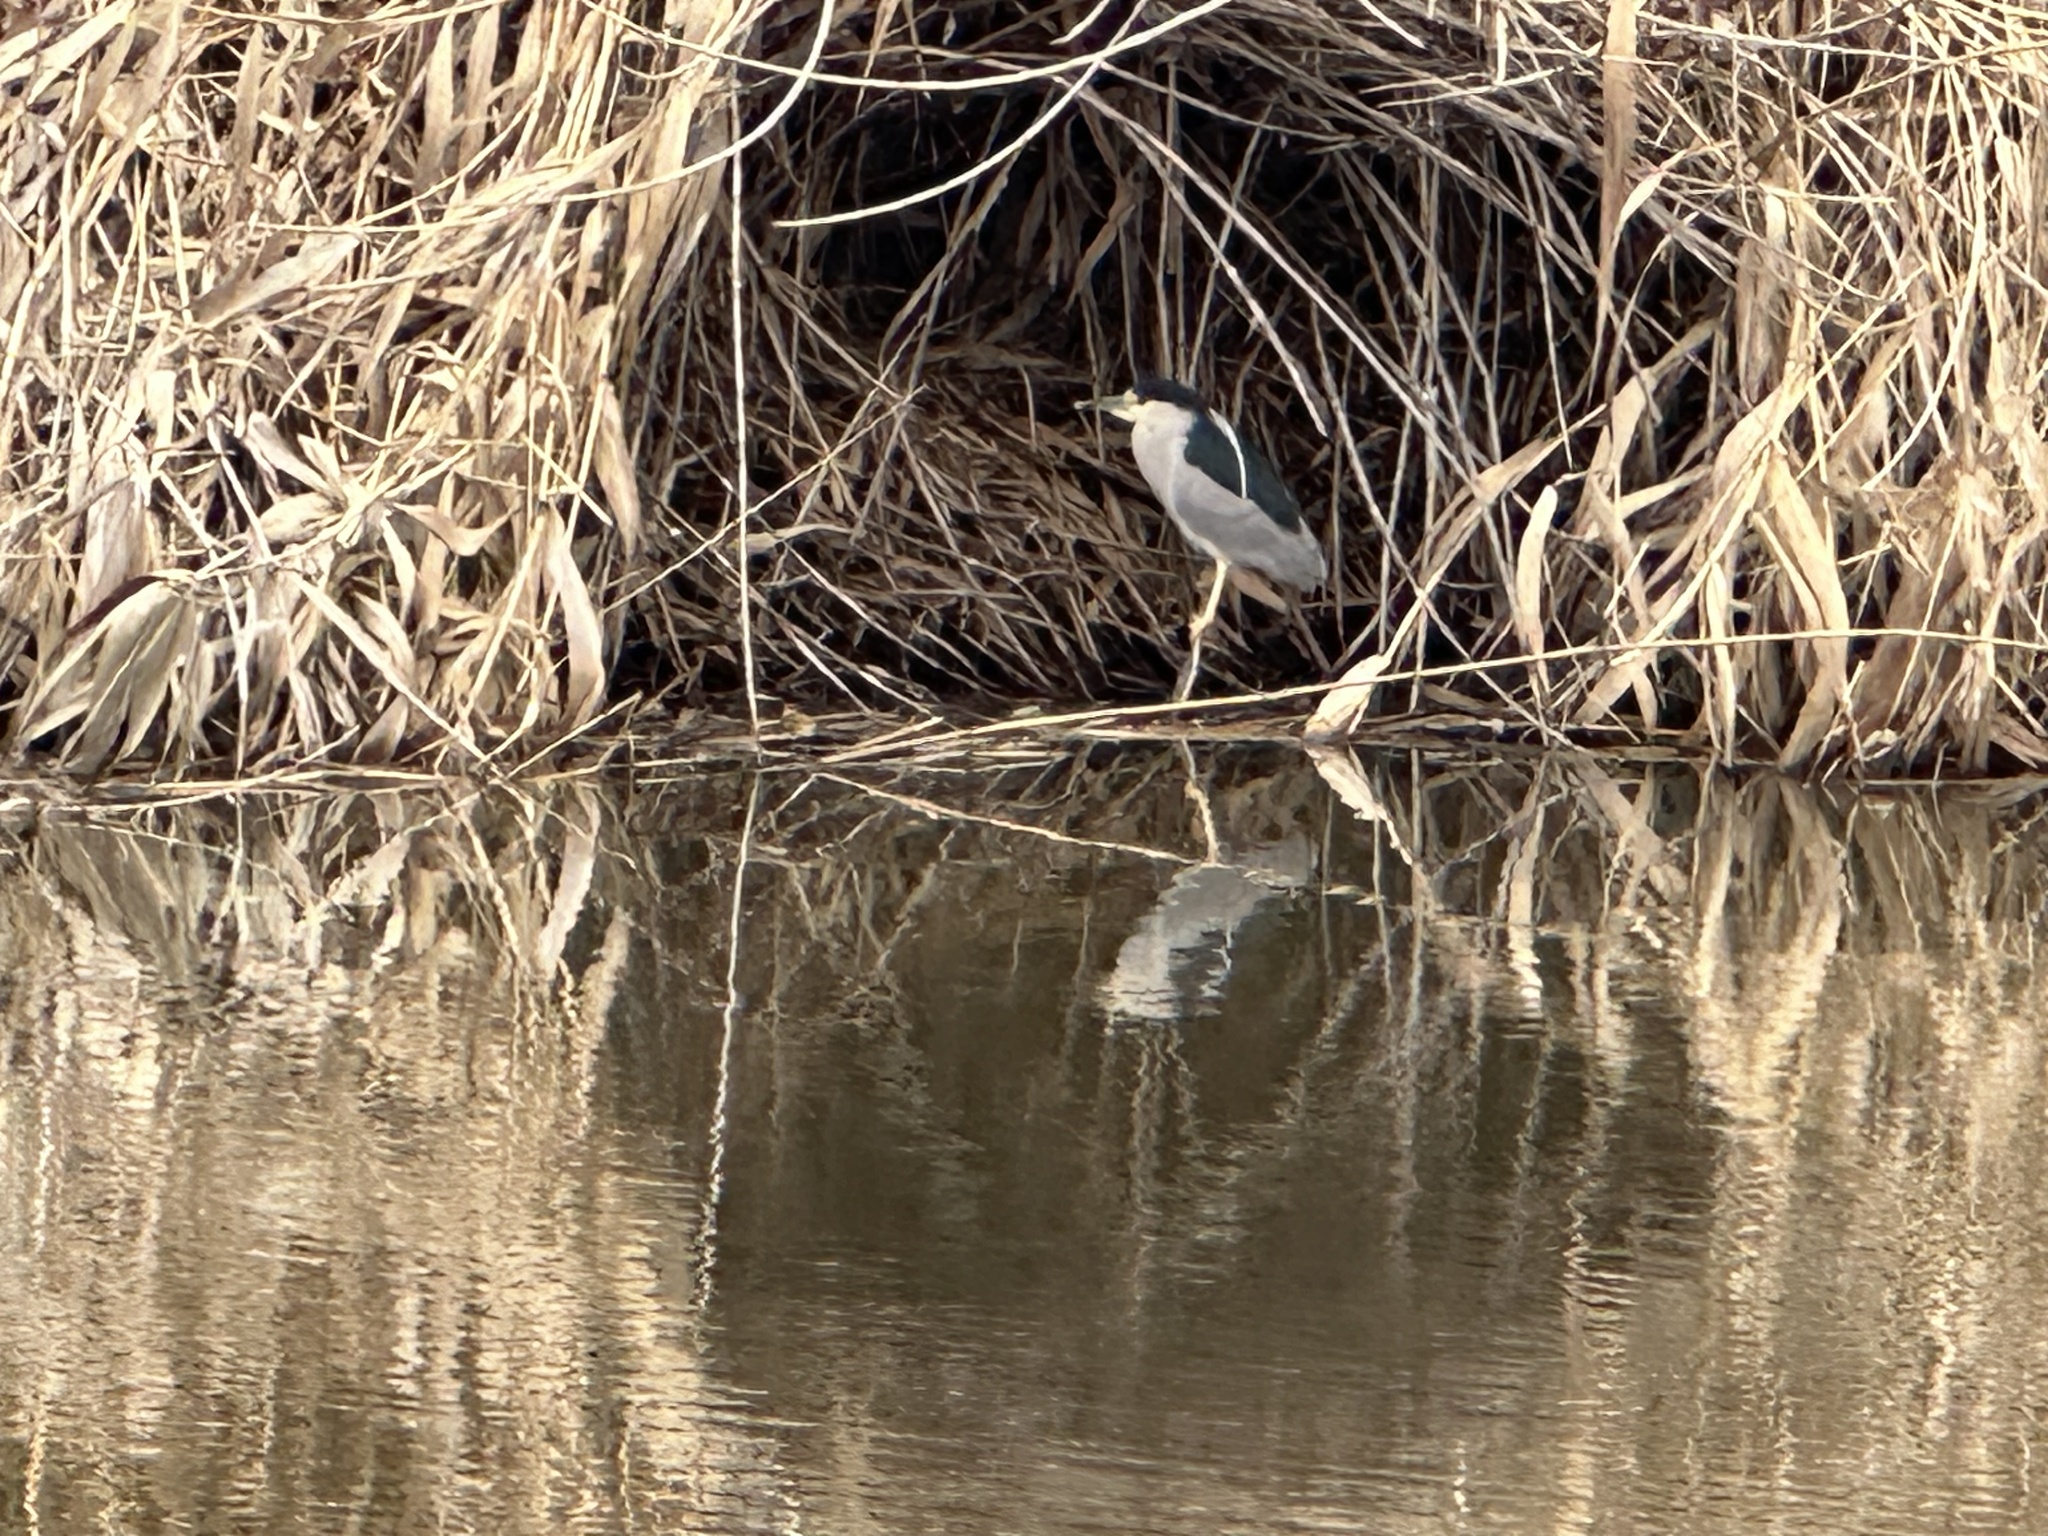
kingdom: Animalia
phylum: Chordata
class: Aves
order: Pelecaniformes
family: Ardeidae
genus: Nycticorax
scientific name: Nycticorax nycticorax
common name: Black-crowned night heron
